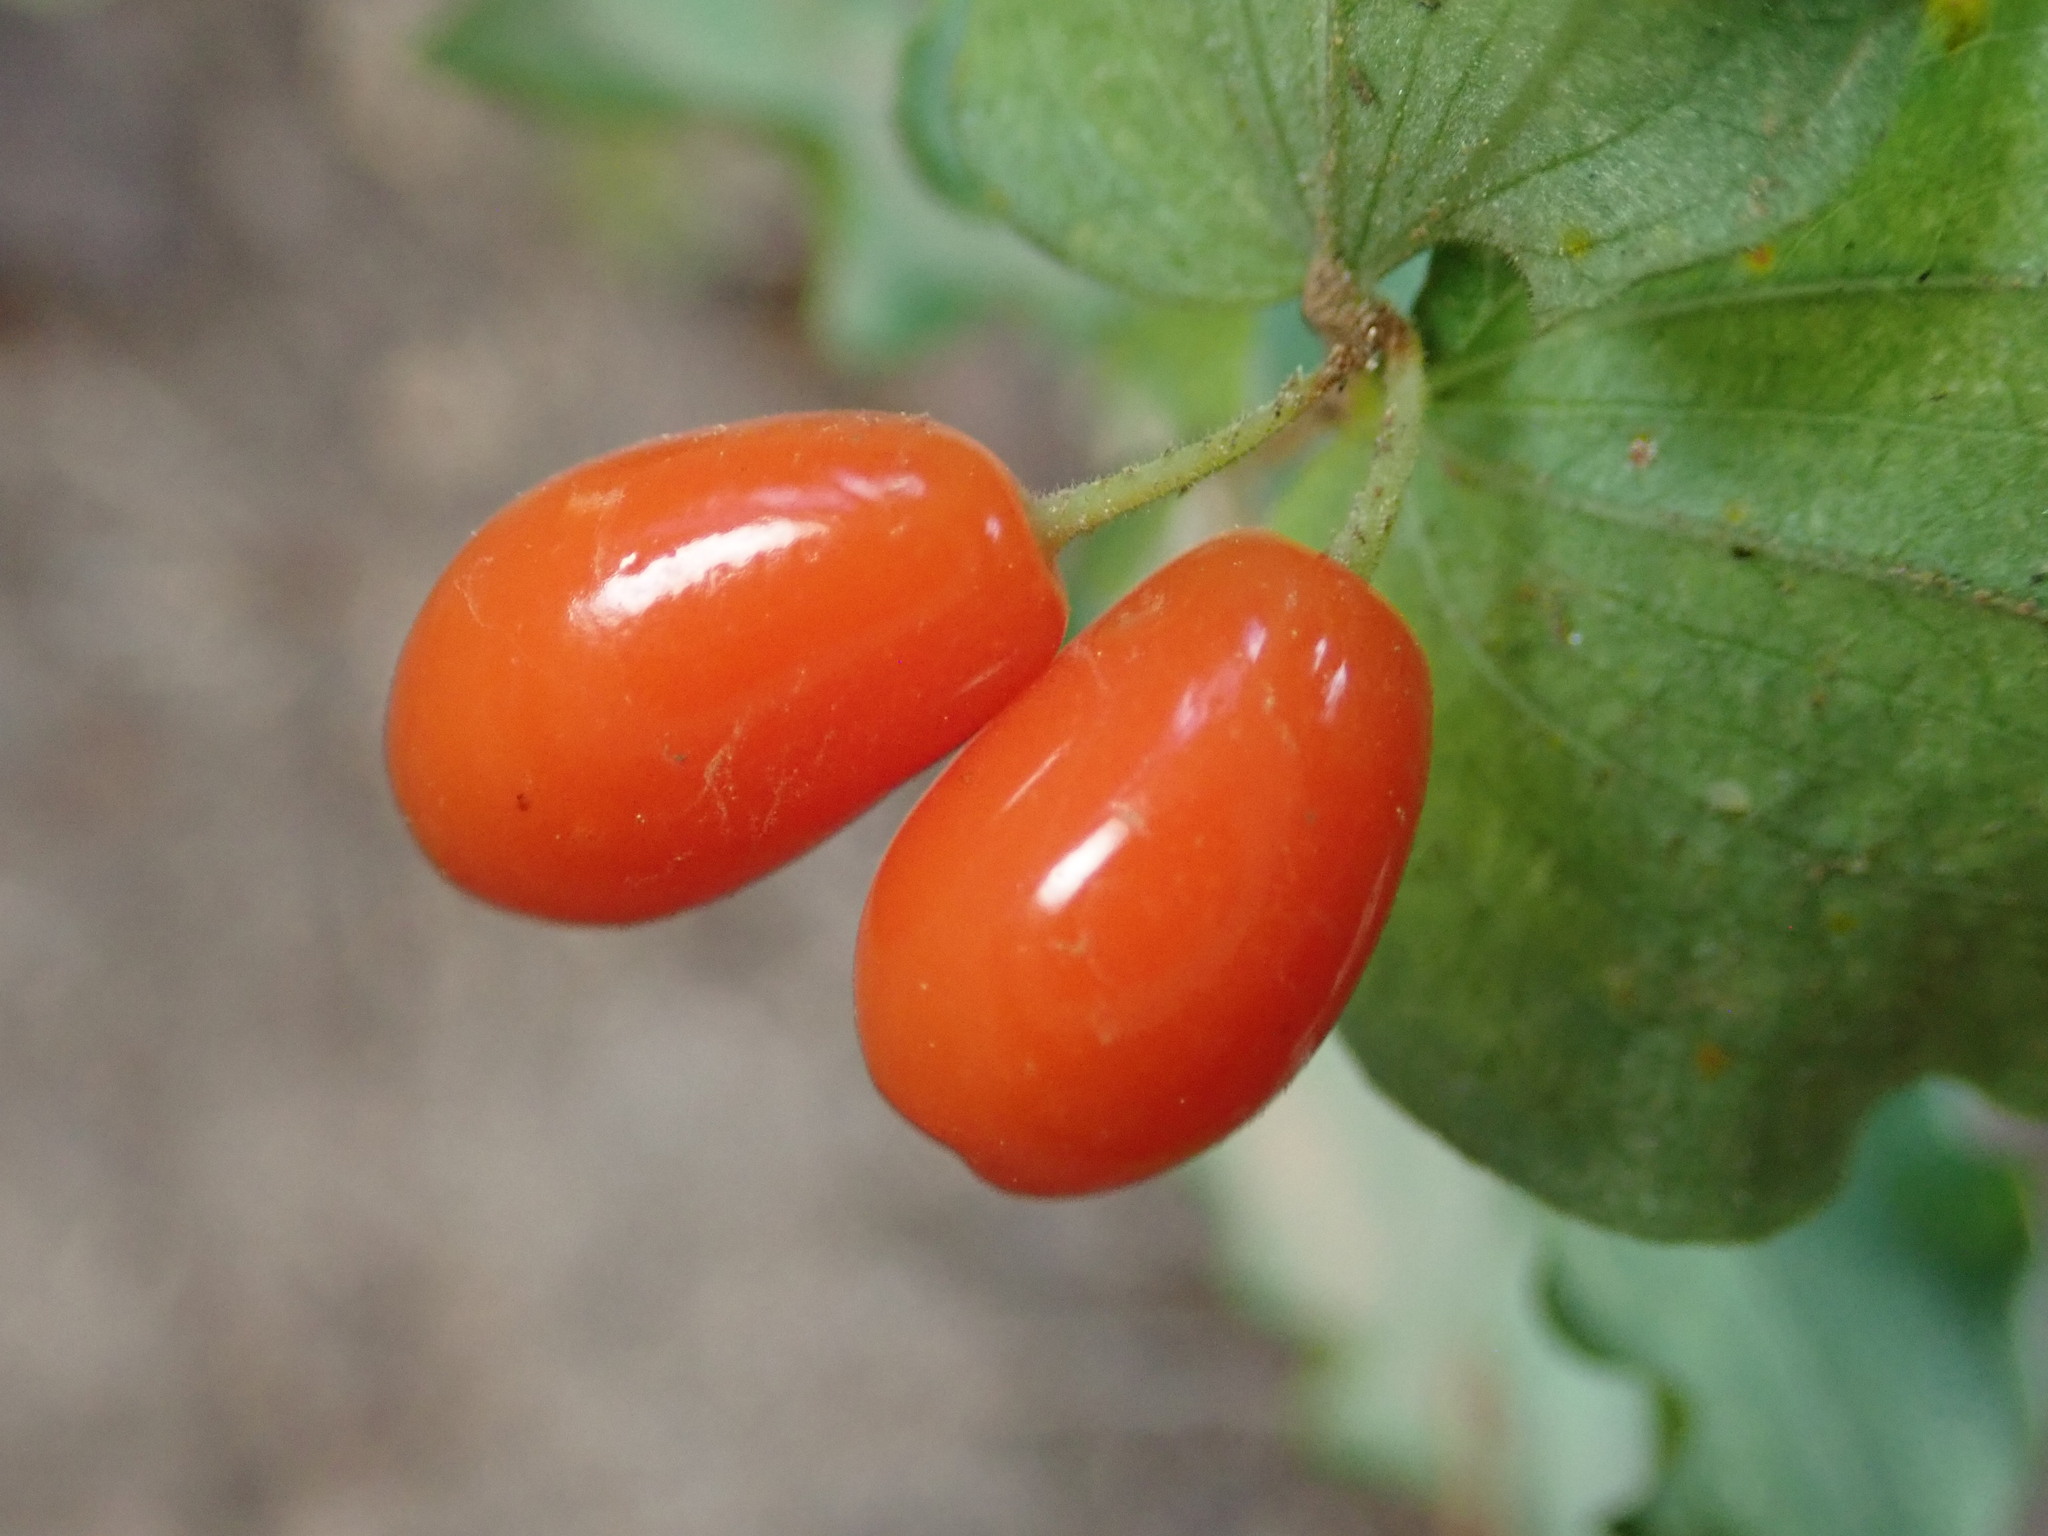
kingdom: Plantae
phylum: Tracheophyta
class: Liliopsida
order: Liliales
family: Liliaceae
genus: Prosartes
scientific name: Prosartes hookeri
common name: Fairy-bells
